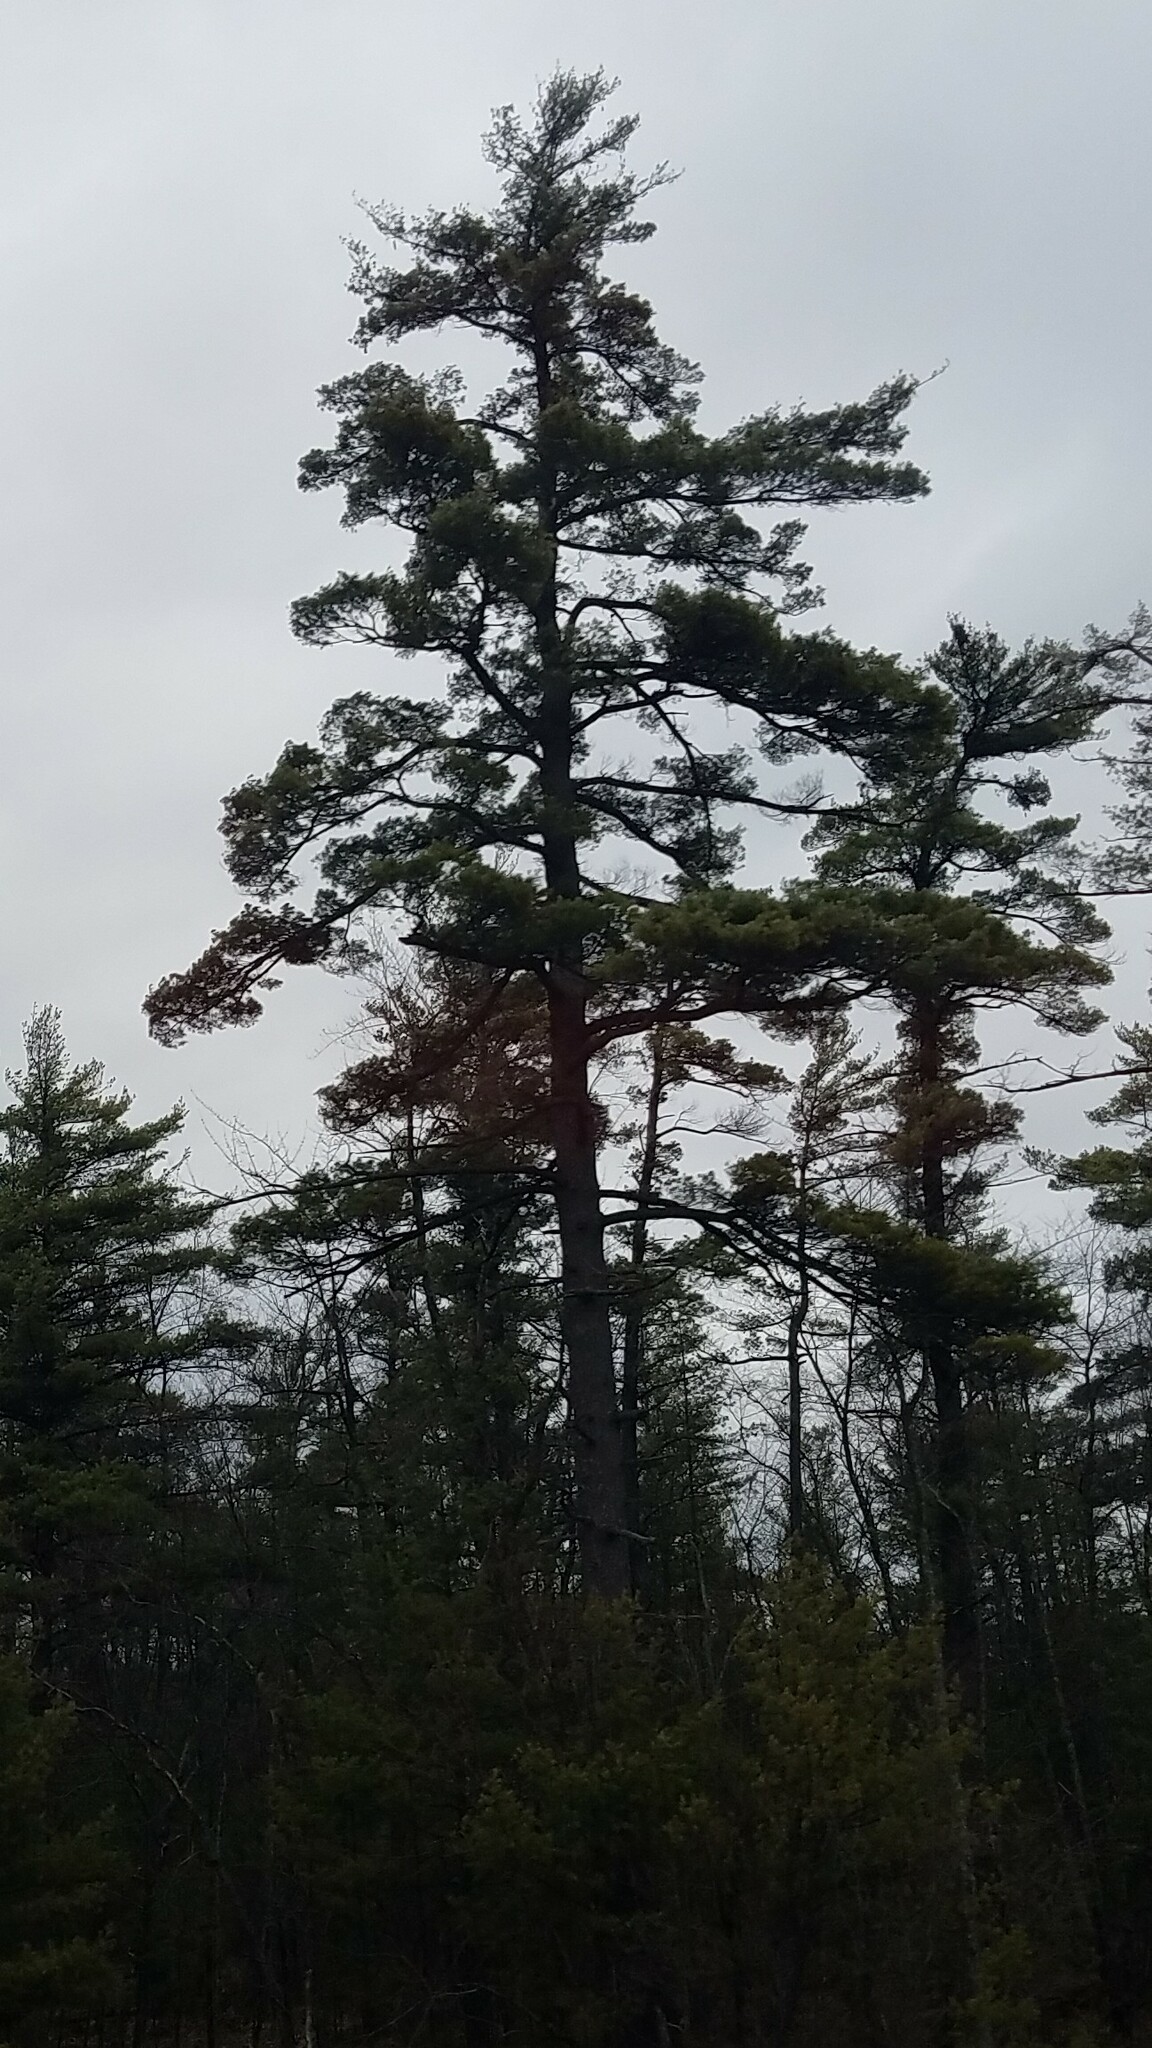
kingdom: Plantae
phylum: Tracheophyta
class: Pinopsida
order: Pinales
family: Pinaceae
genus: Pinus
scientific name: Pinus strobus
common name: Weymouth pine
